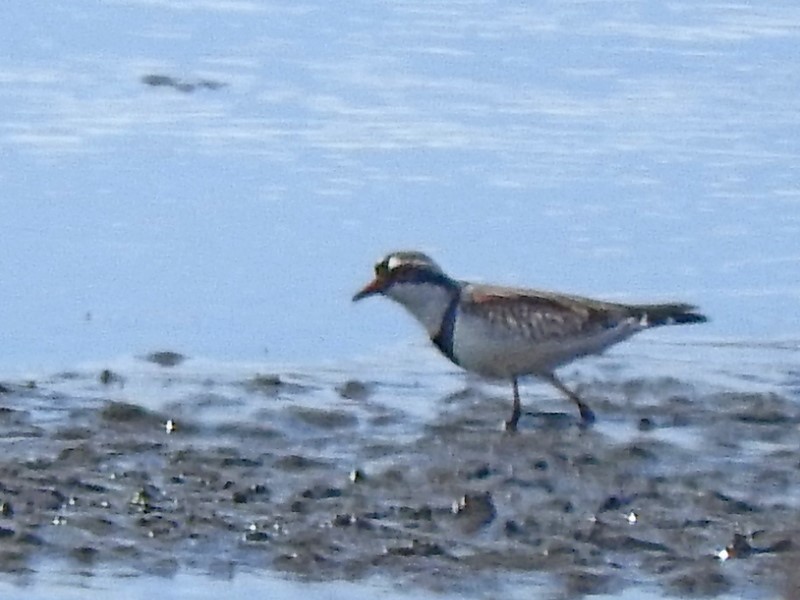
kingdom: Animalia
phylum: Chordata
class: Aves
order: Charadriiformes
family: Charadriidae
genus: Elseyornis
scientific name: Elseyornis melanops
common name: Black-fronted dotterel
